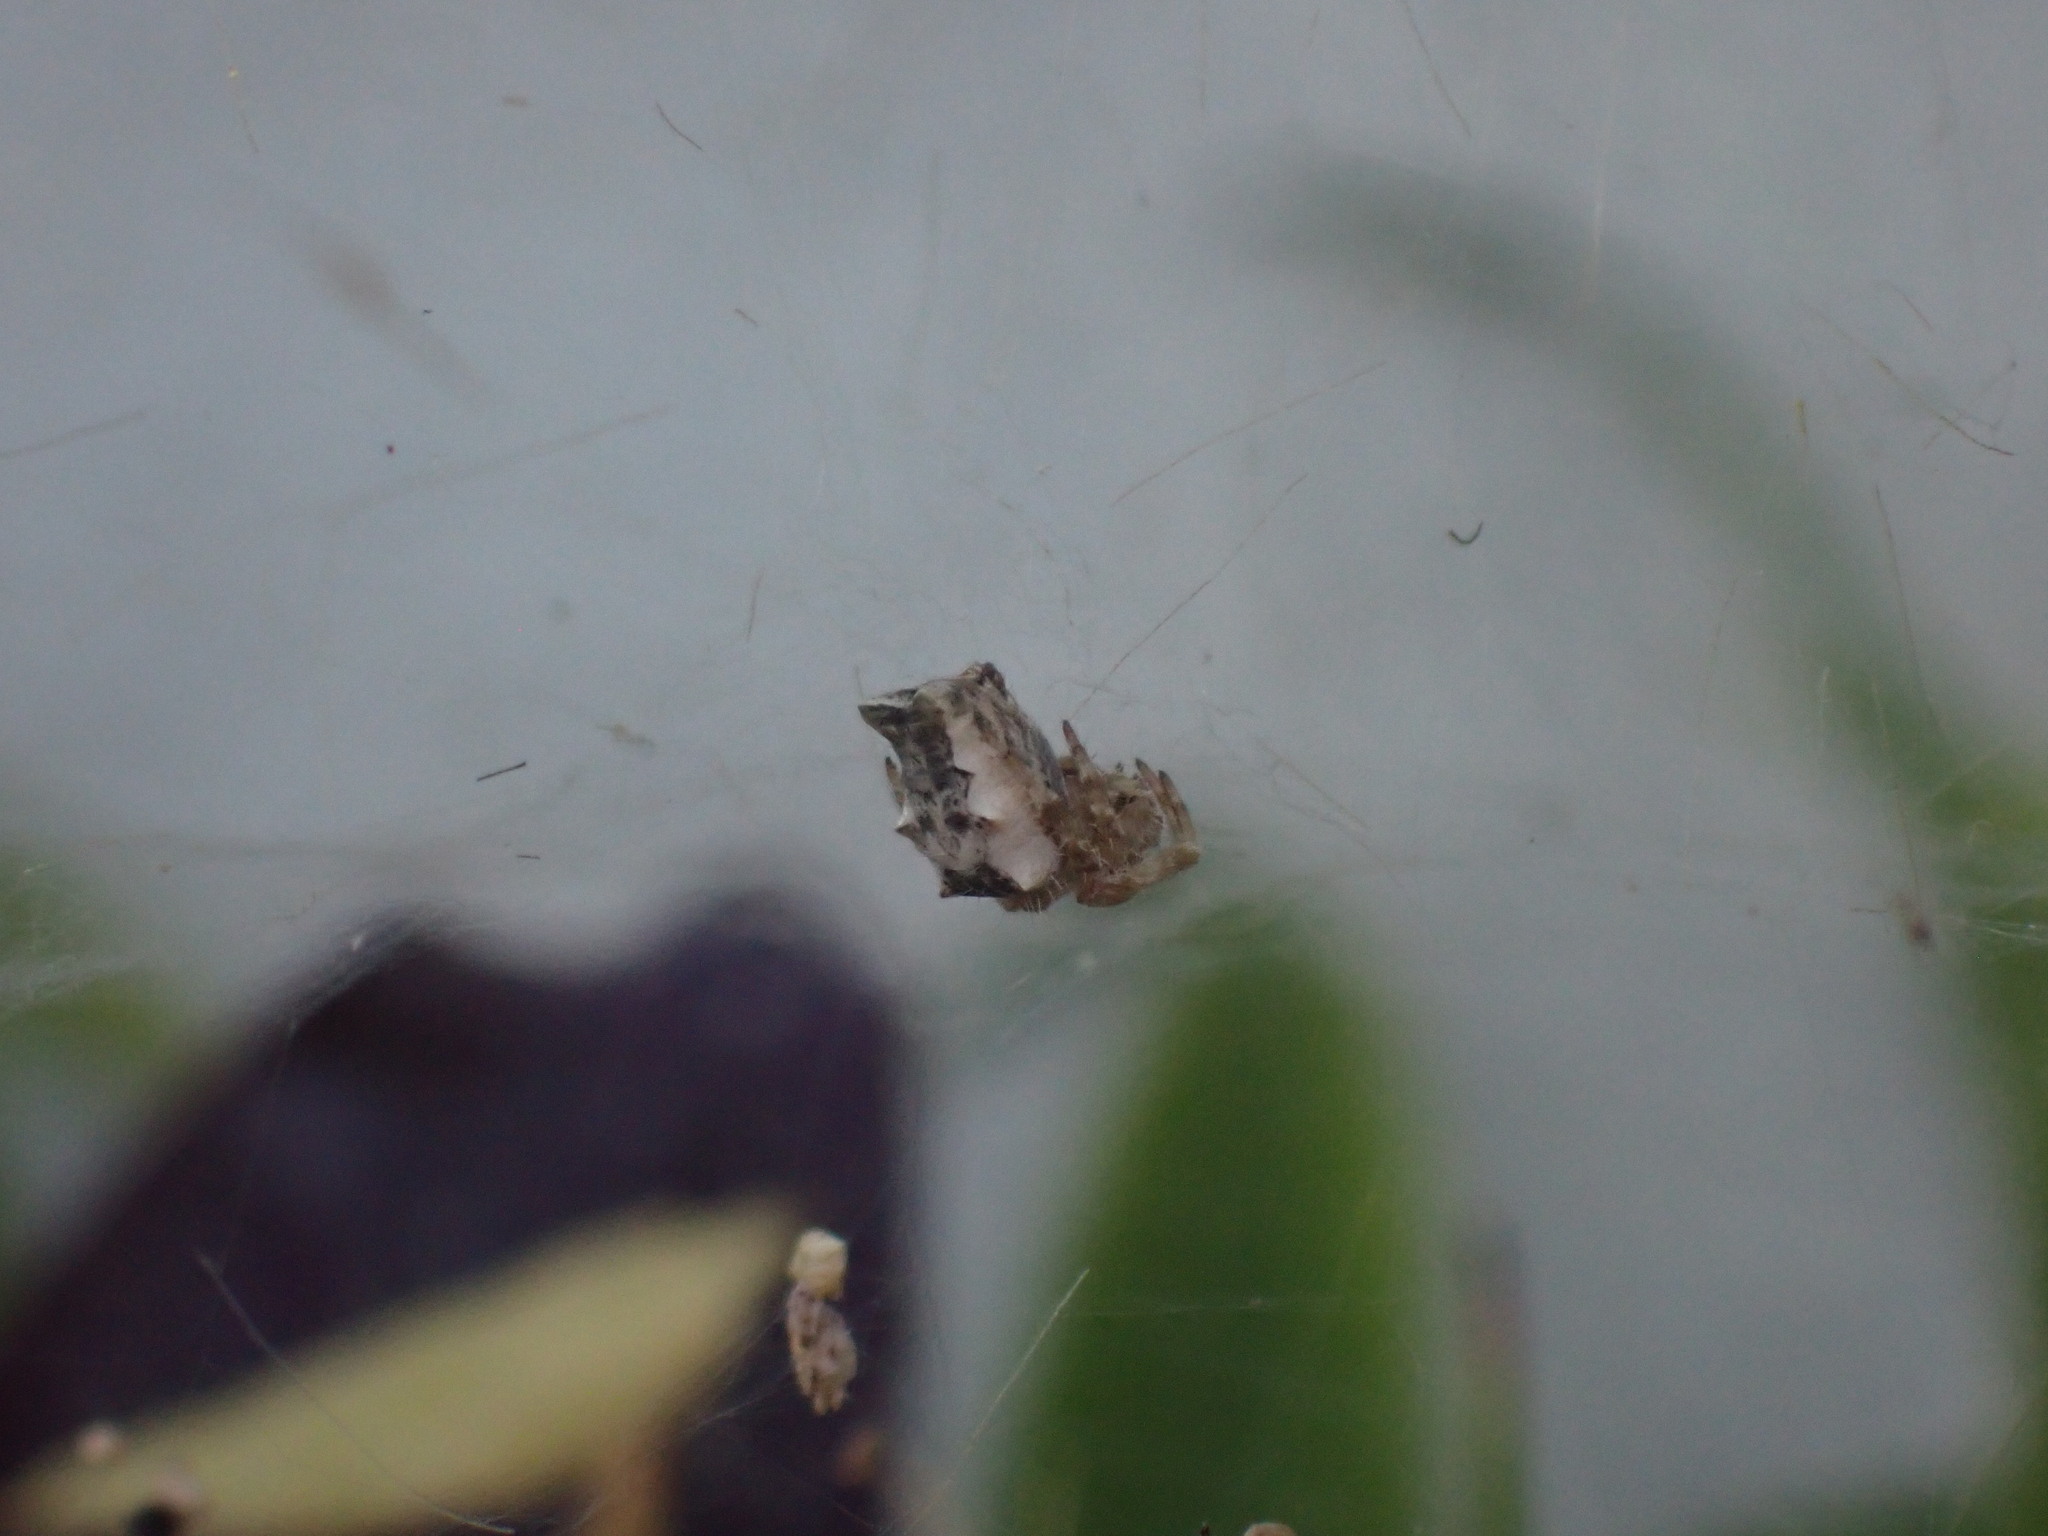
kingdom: Animalia
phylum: Arthropoda
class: Arachnida
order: Araneae
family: Araneidae
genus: Cyrtophora
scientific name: Cyrtophora citricola
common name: Orb weavers
